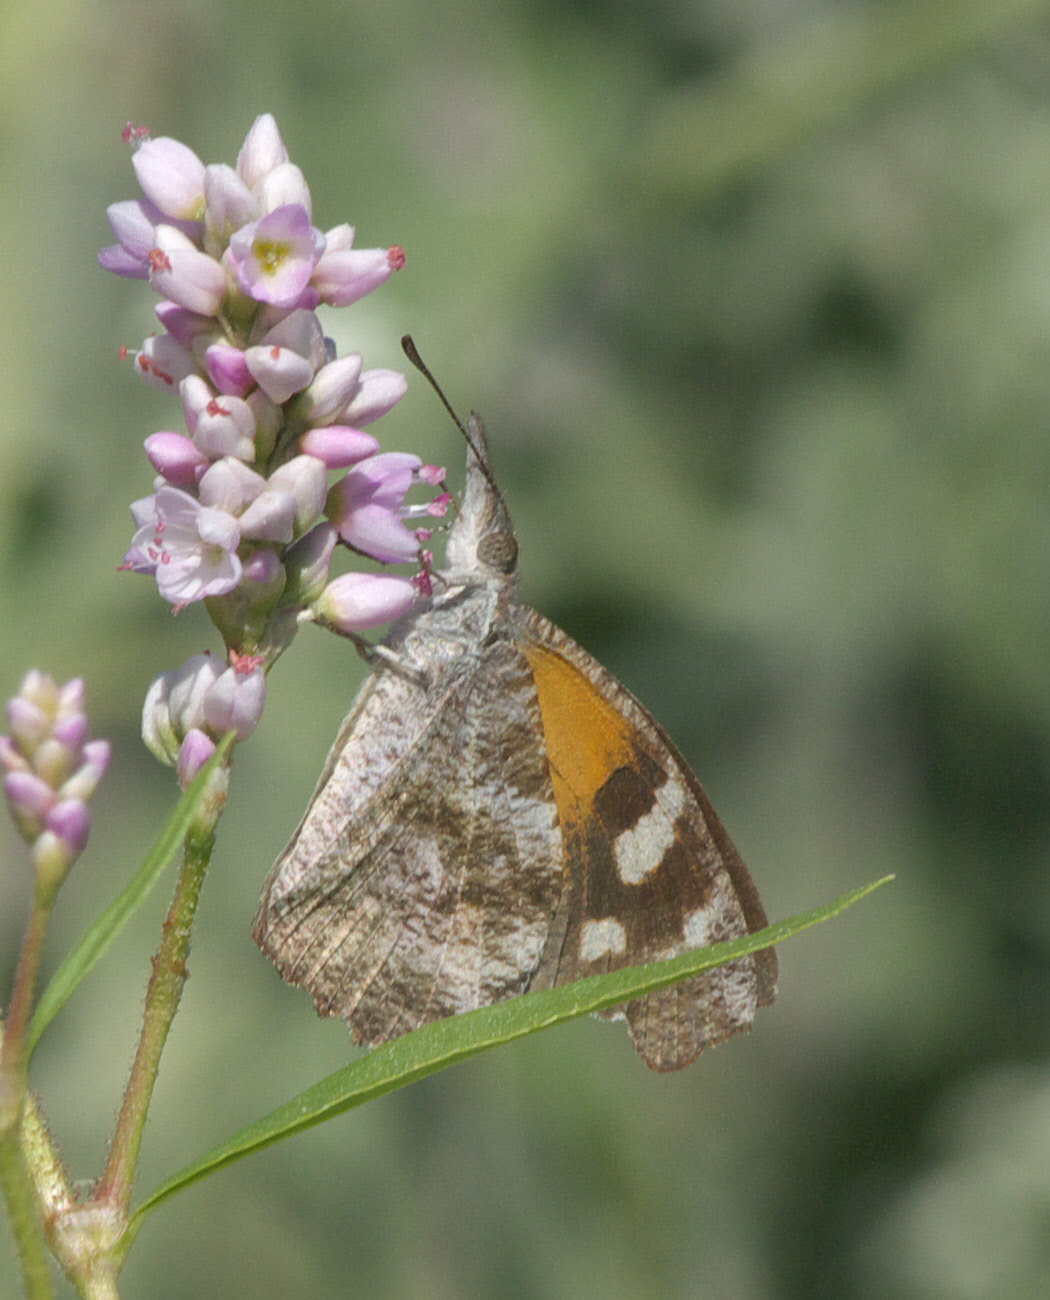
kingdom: Animalia
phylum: Arthropoda
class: Insecta
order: Lepidoptera
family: Nymphalidae
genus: Libytheana
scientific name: Libytheana carinenta
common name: American snout
